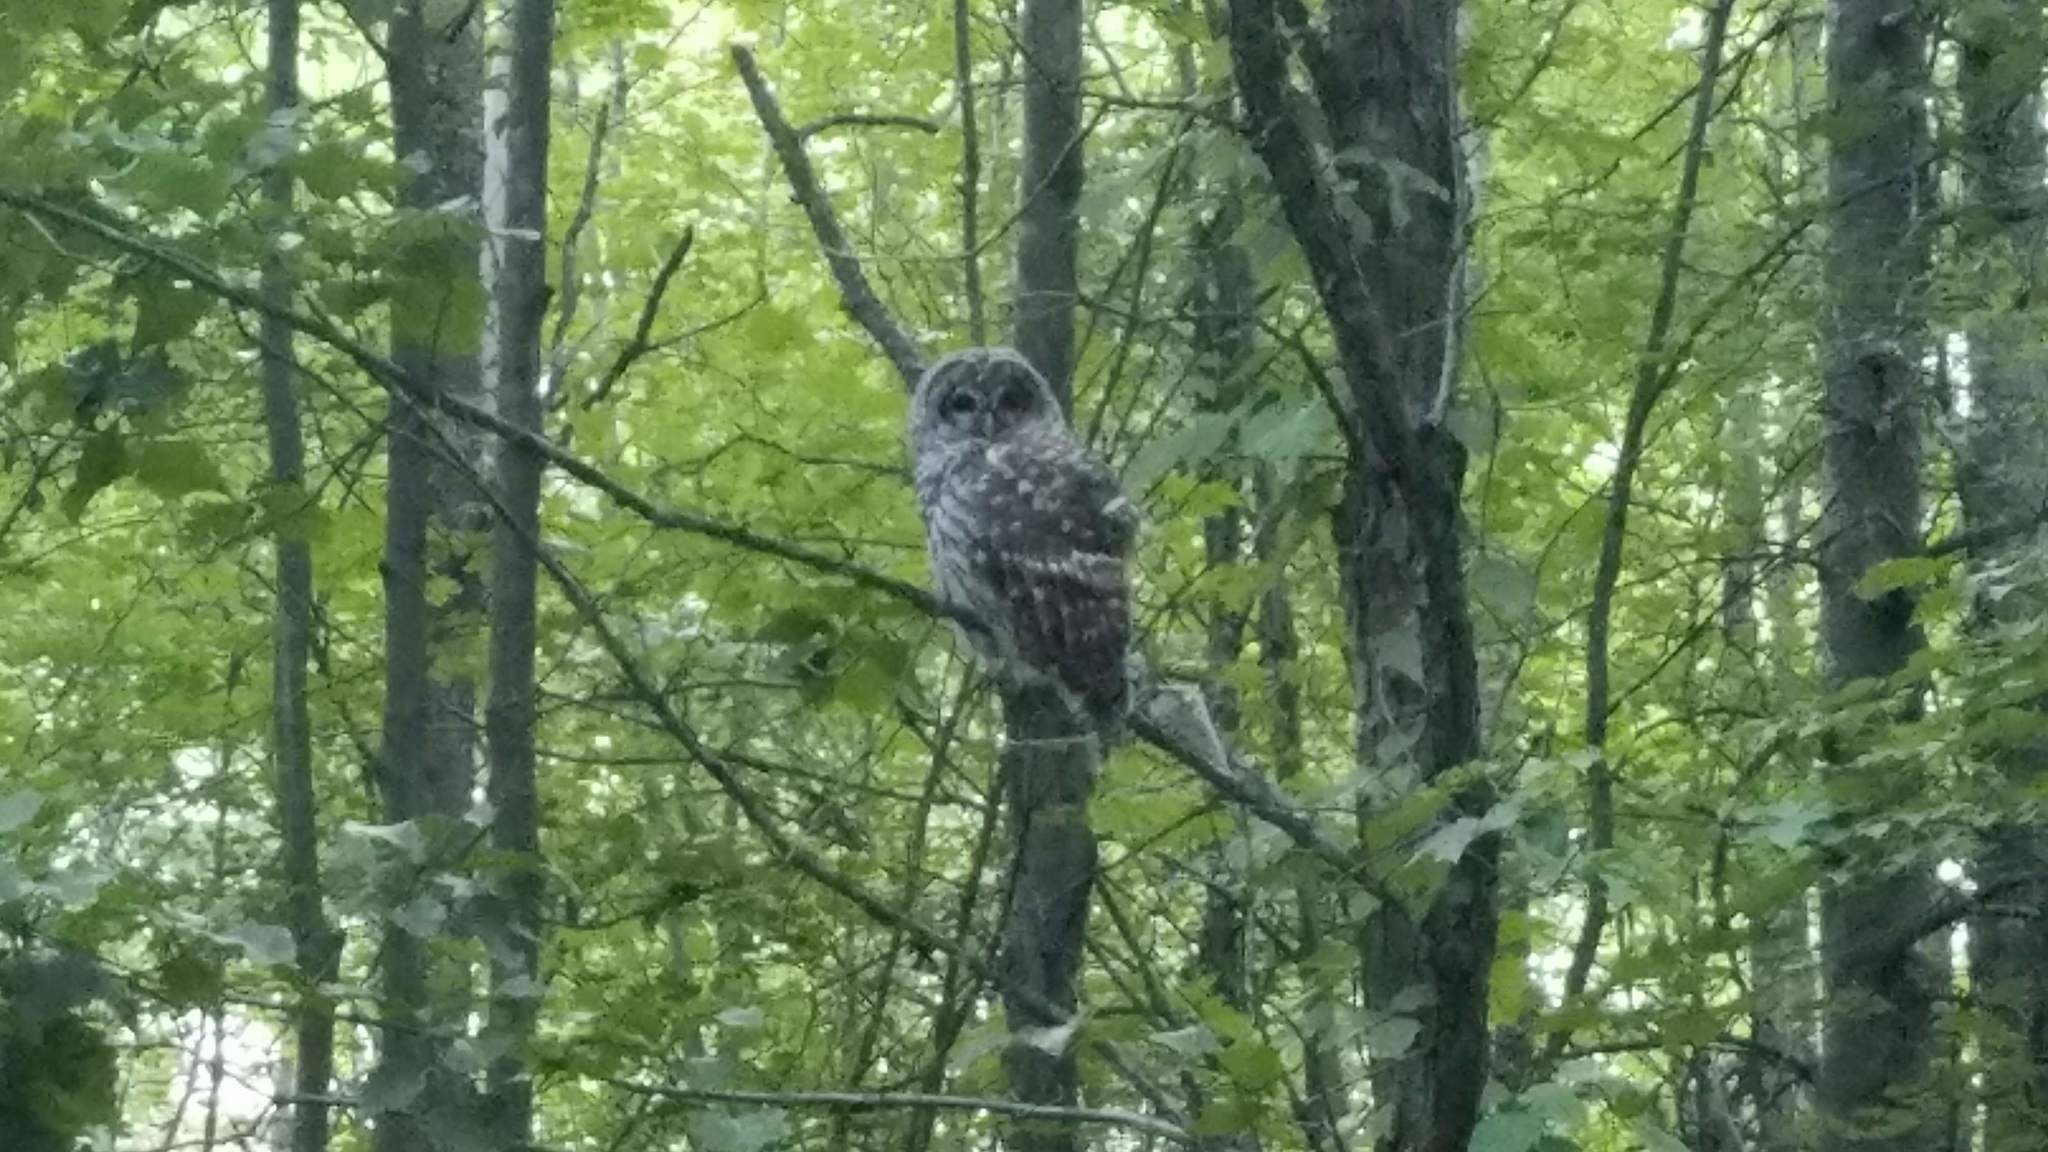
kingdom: Animalia
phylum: Chordata
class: Aves
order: Strigiformes
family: Strigidae
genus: Strix
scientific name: Strix varia
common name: Barred owl
